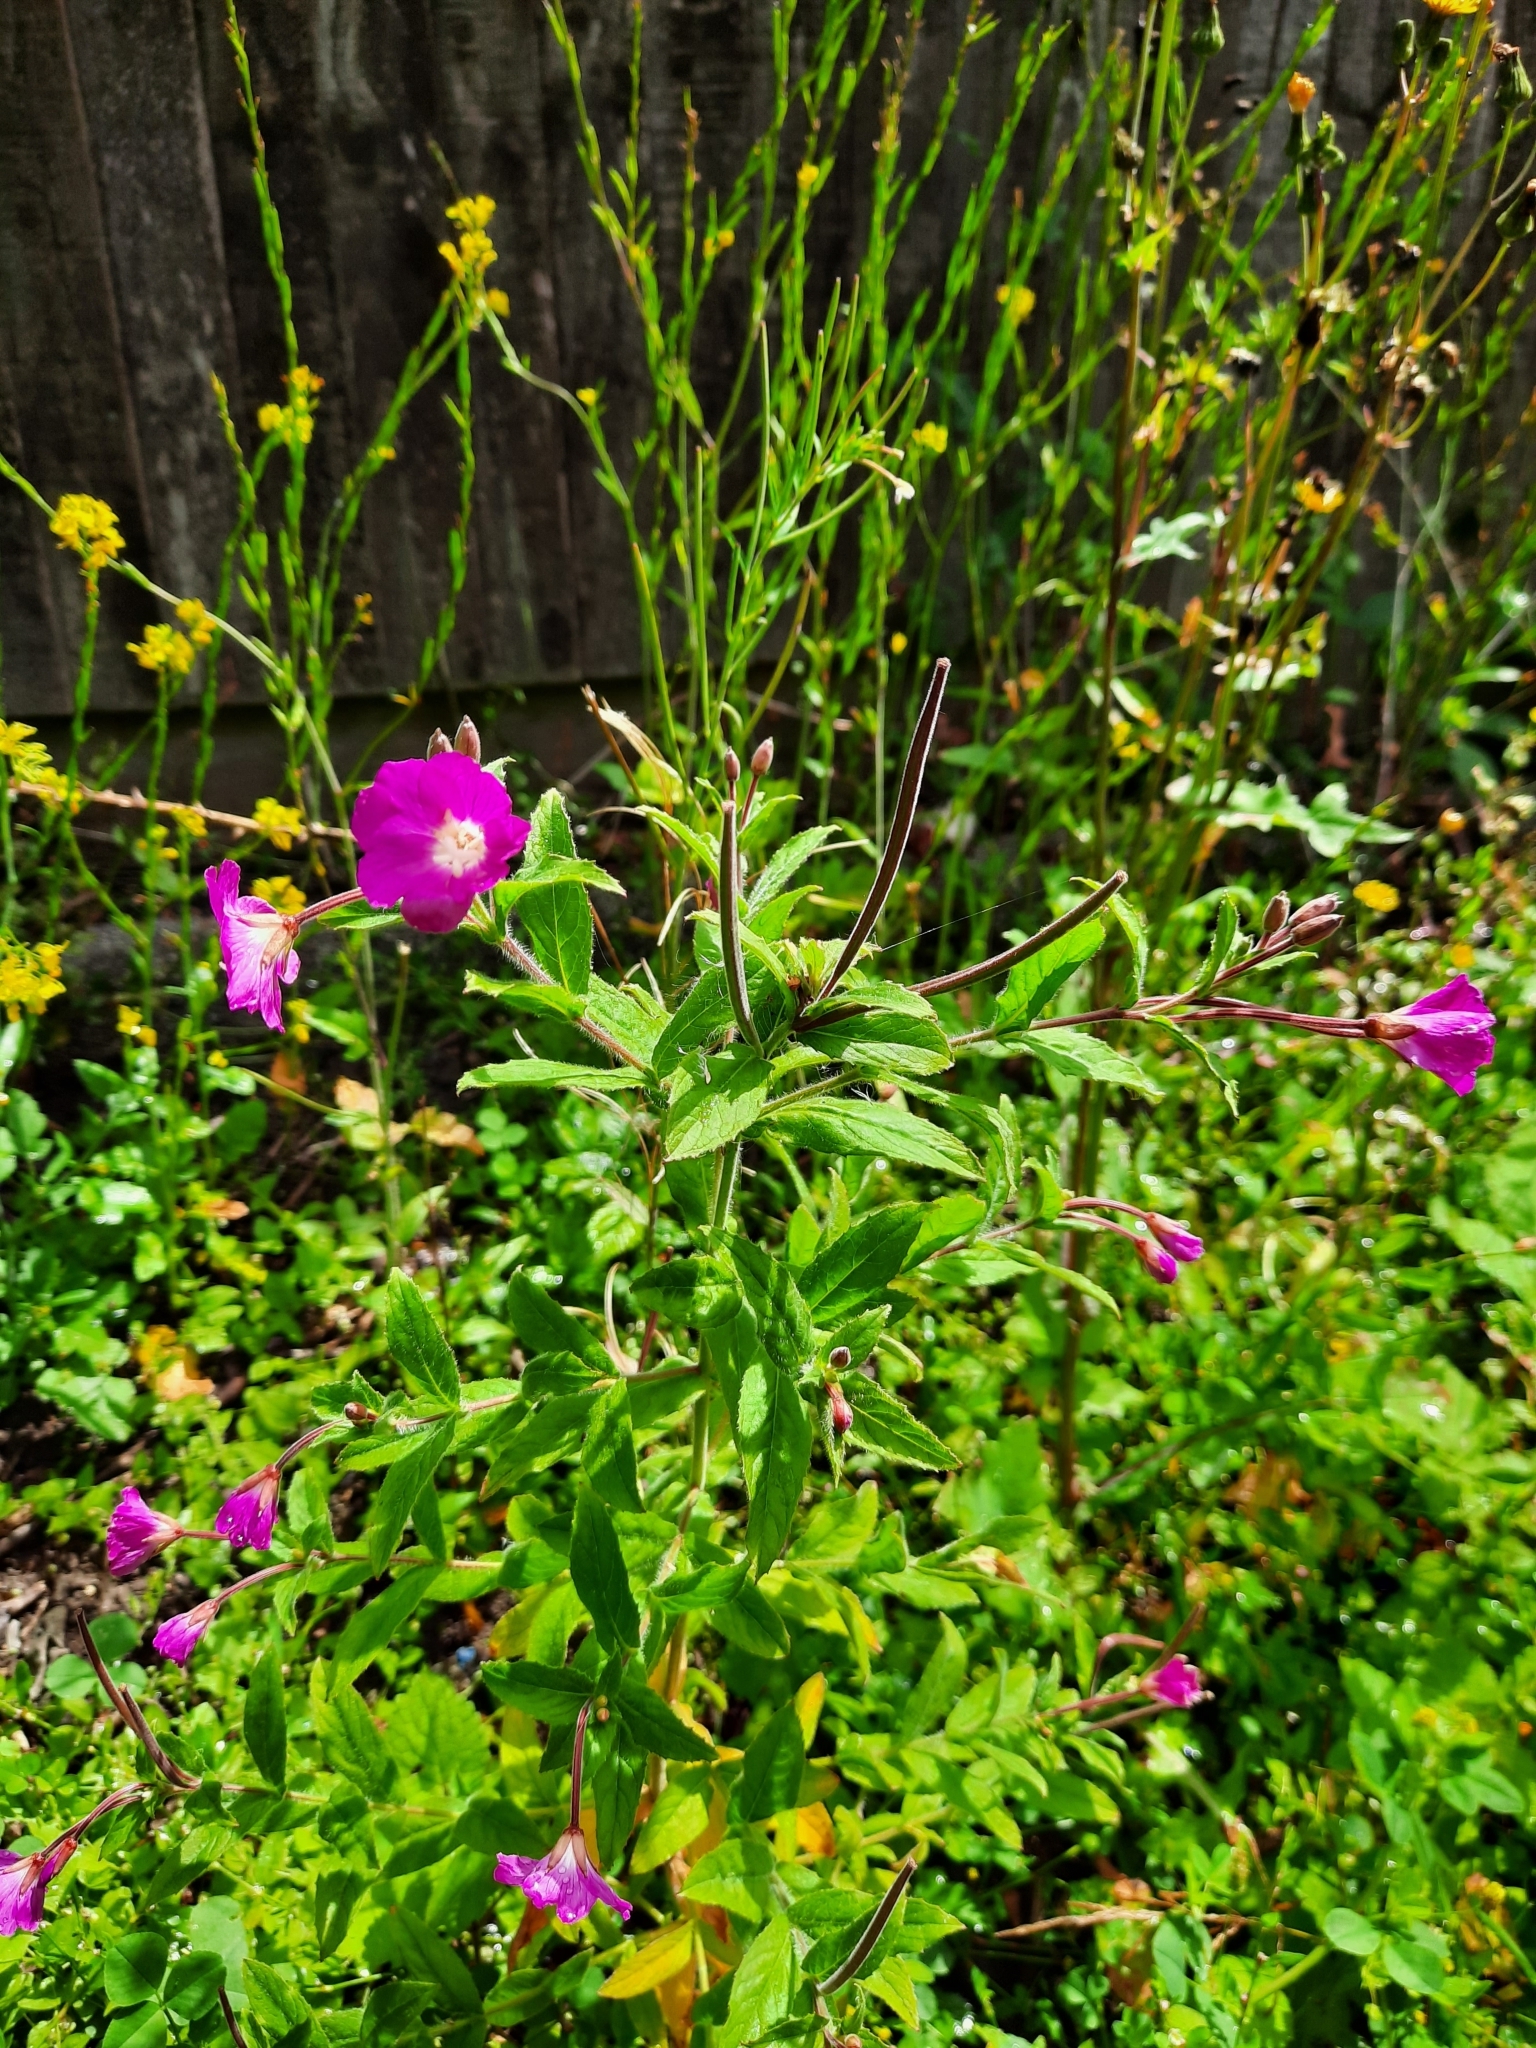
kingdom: Plantae
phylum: Tracheophyta
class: Magnoliopsida
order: Myrtales
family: Onagraceae
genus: Epilobium
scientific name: Epilobium hirsutum
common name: Great willowherb
